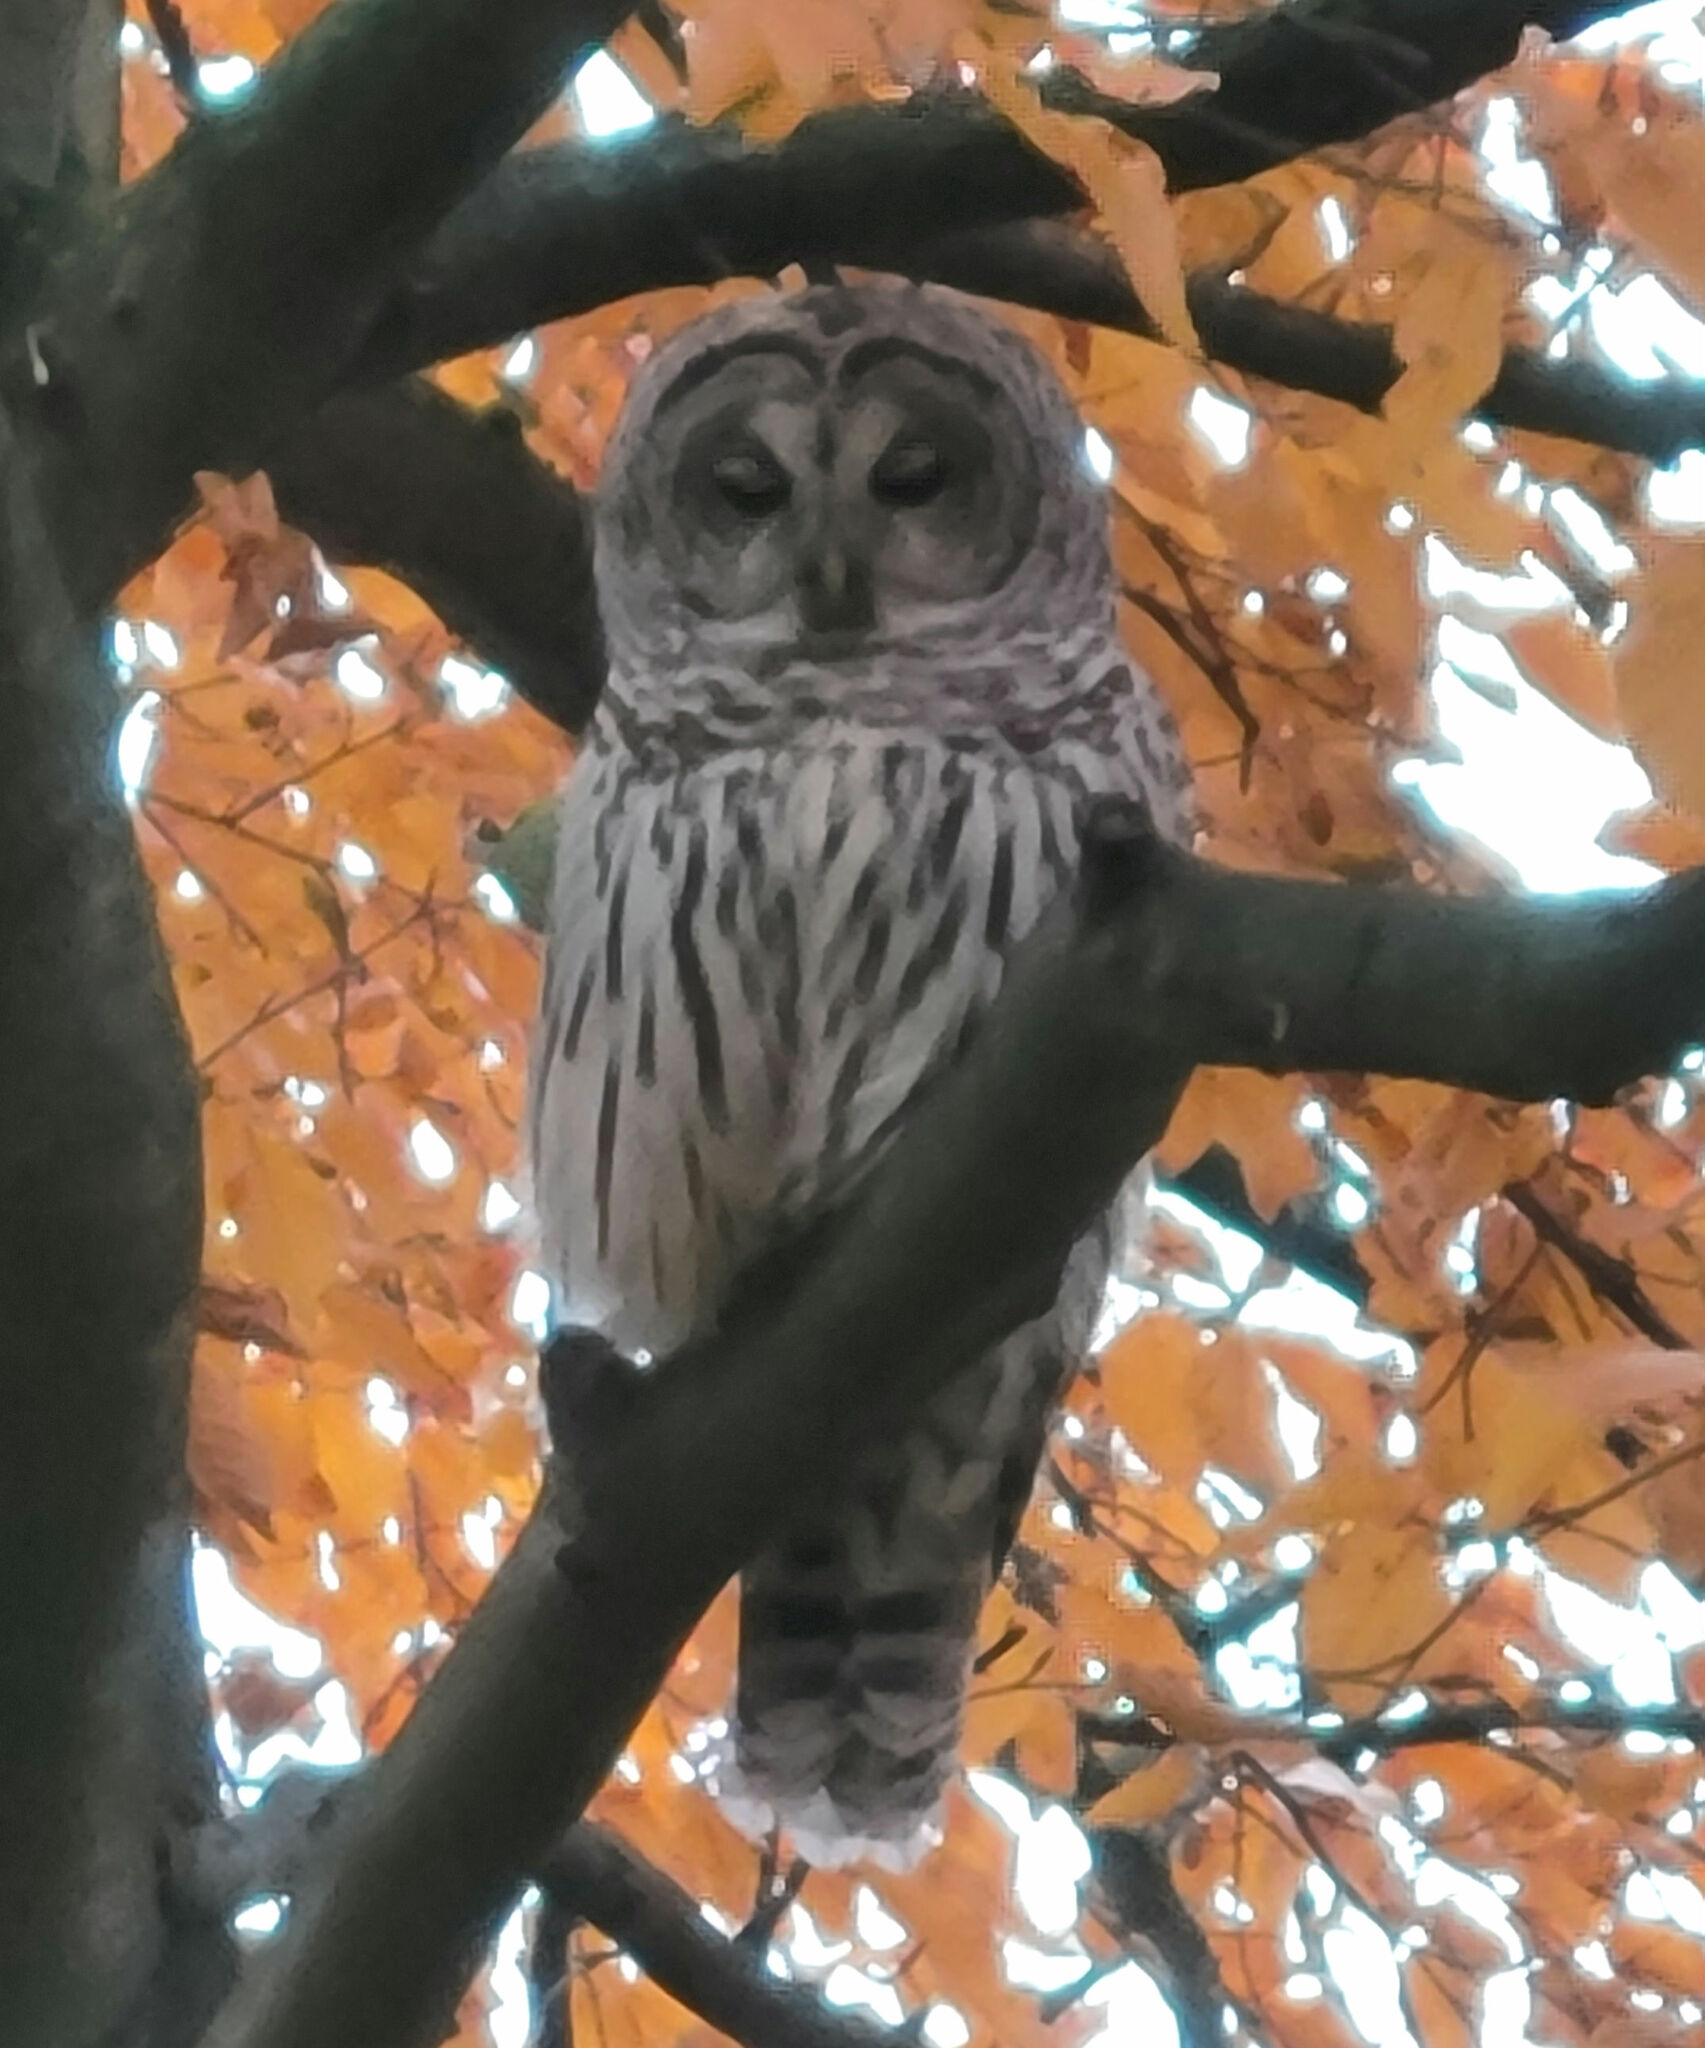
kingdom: Animalia
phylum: Chordata
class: Aves
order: Strigiformes
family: Strigidae
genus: Strix
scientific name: Strix varia
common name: Barred owl
